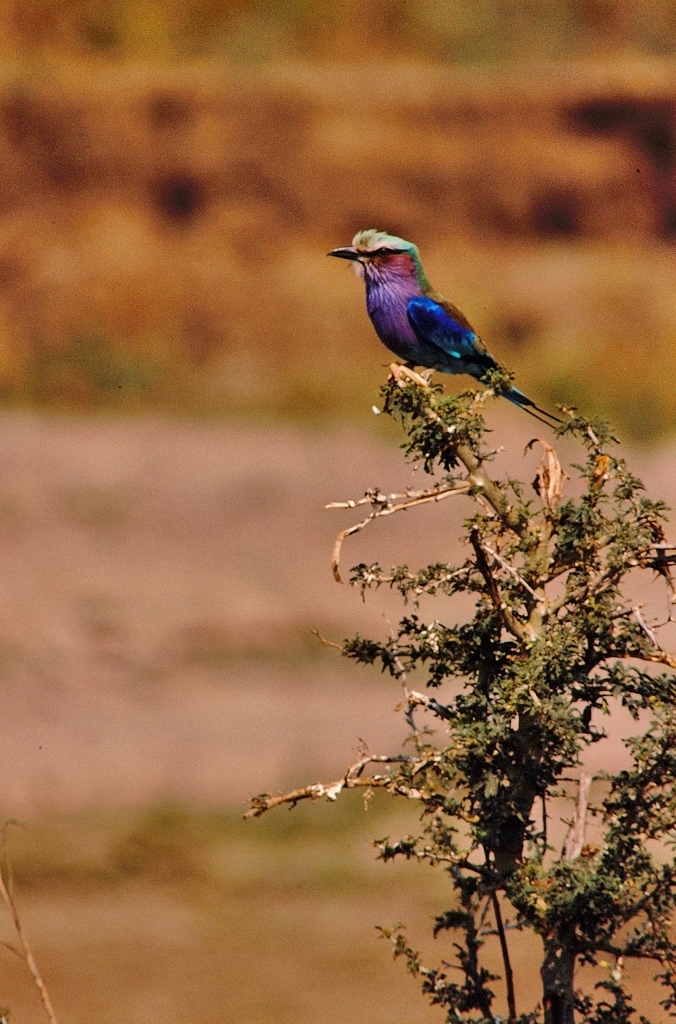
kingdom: Animalia
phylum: Chordata
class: Aves
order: Coraciiformes
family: Coraciidae
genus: Coracias
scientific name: Coracias caudatus
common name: Lilac-breasted roller
